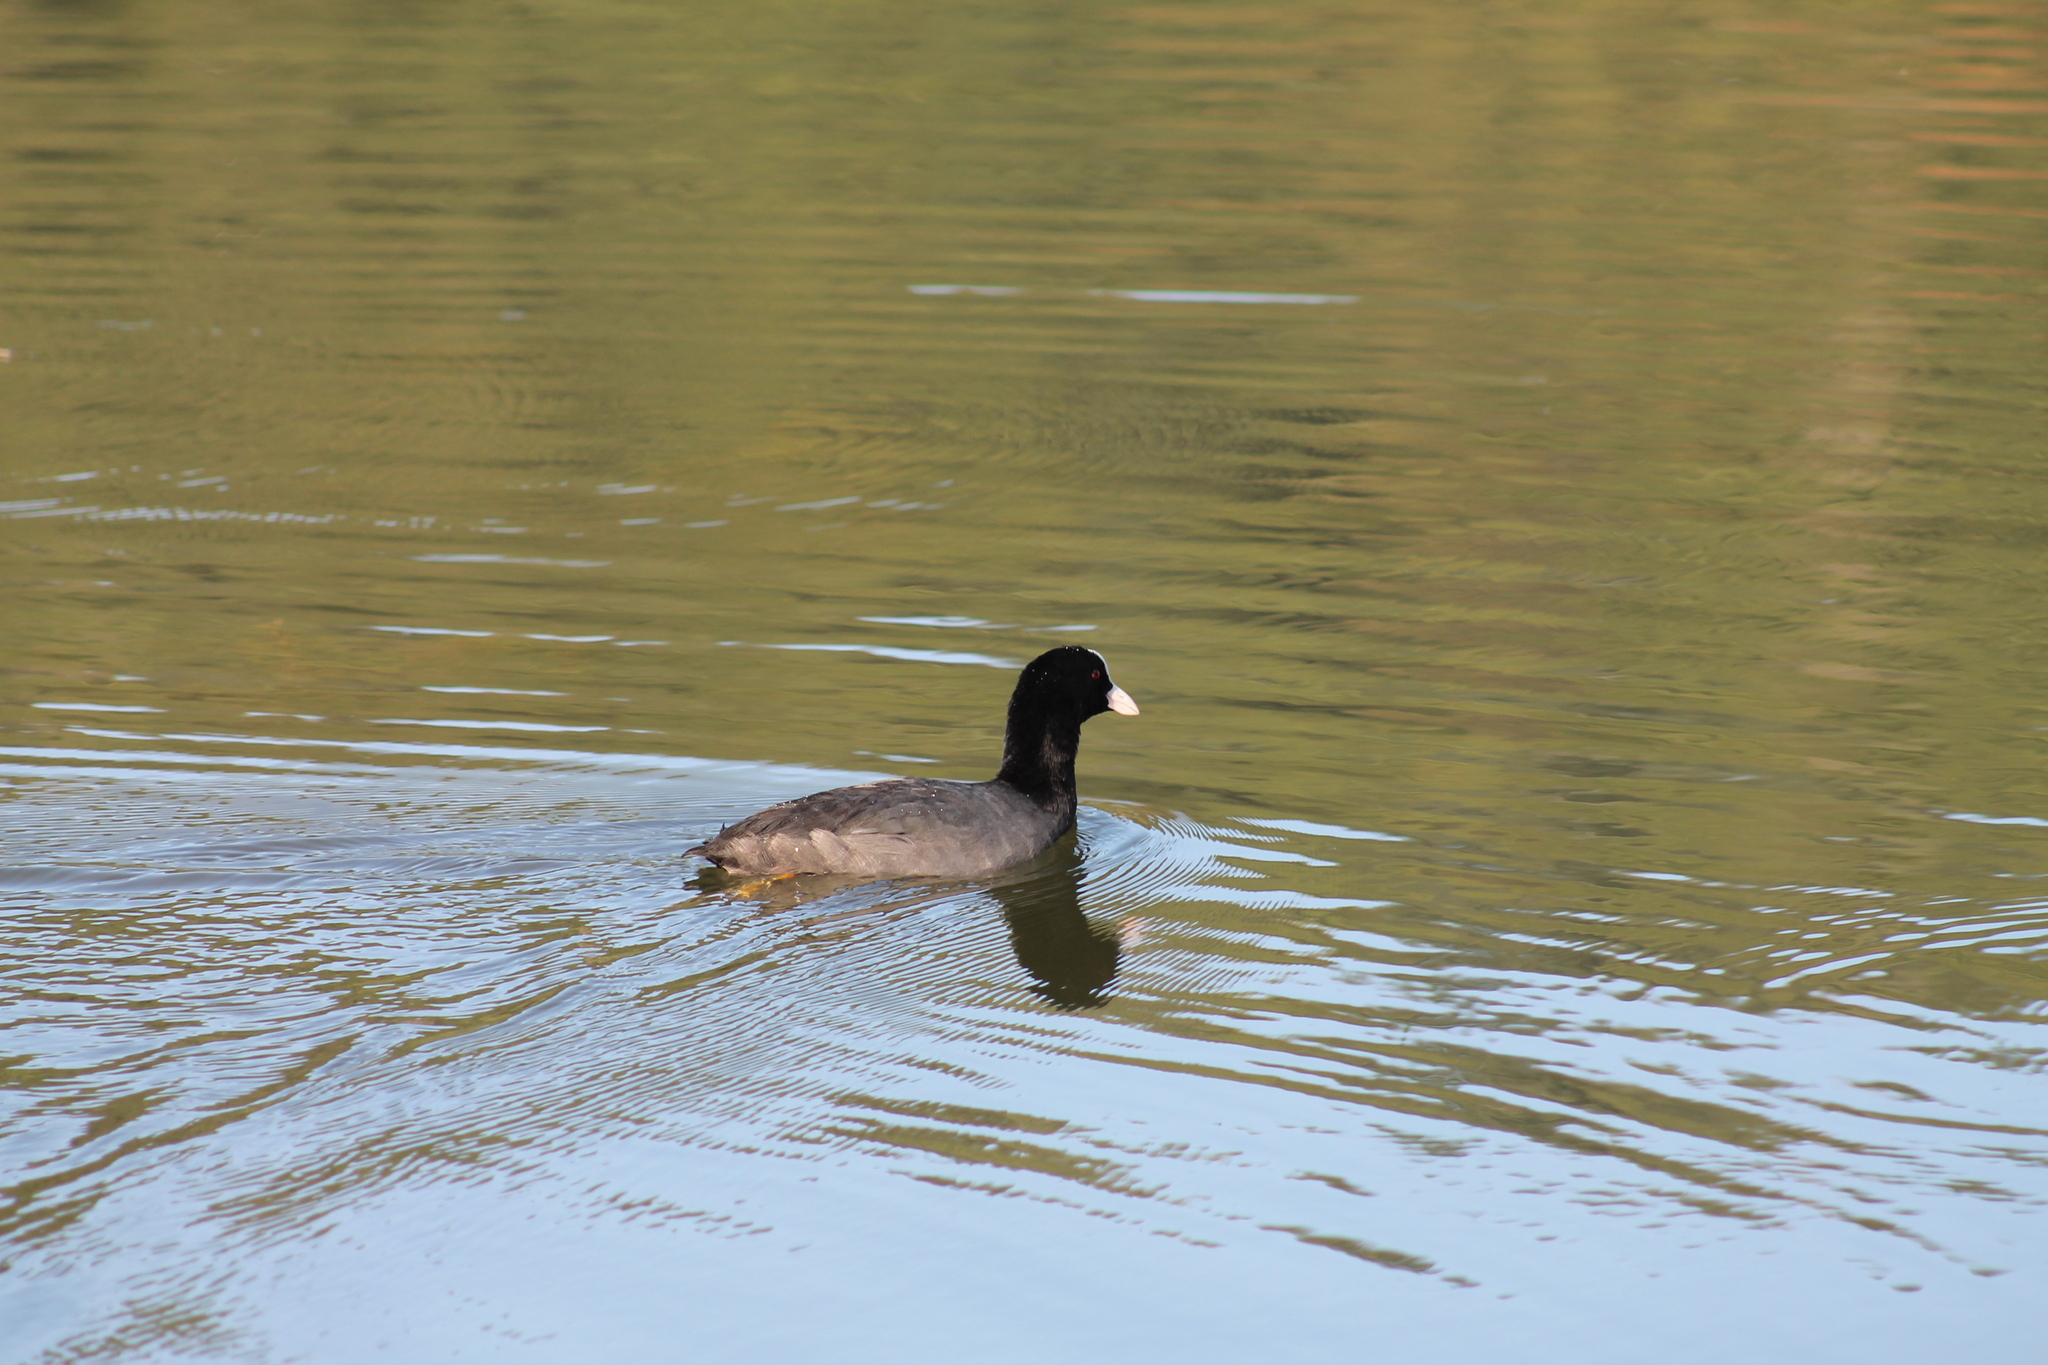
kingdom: Animalia
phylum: Chordata
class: Aves
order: Gruiformes
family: Rallidae
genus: Fulica
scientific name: Fulica atra
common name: Eurasian coot
